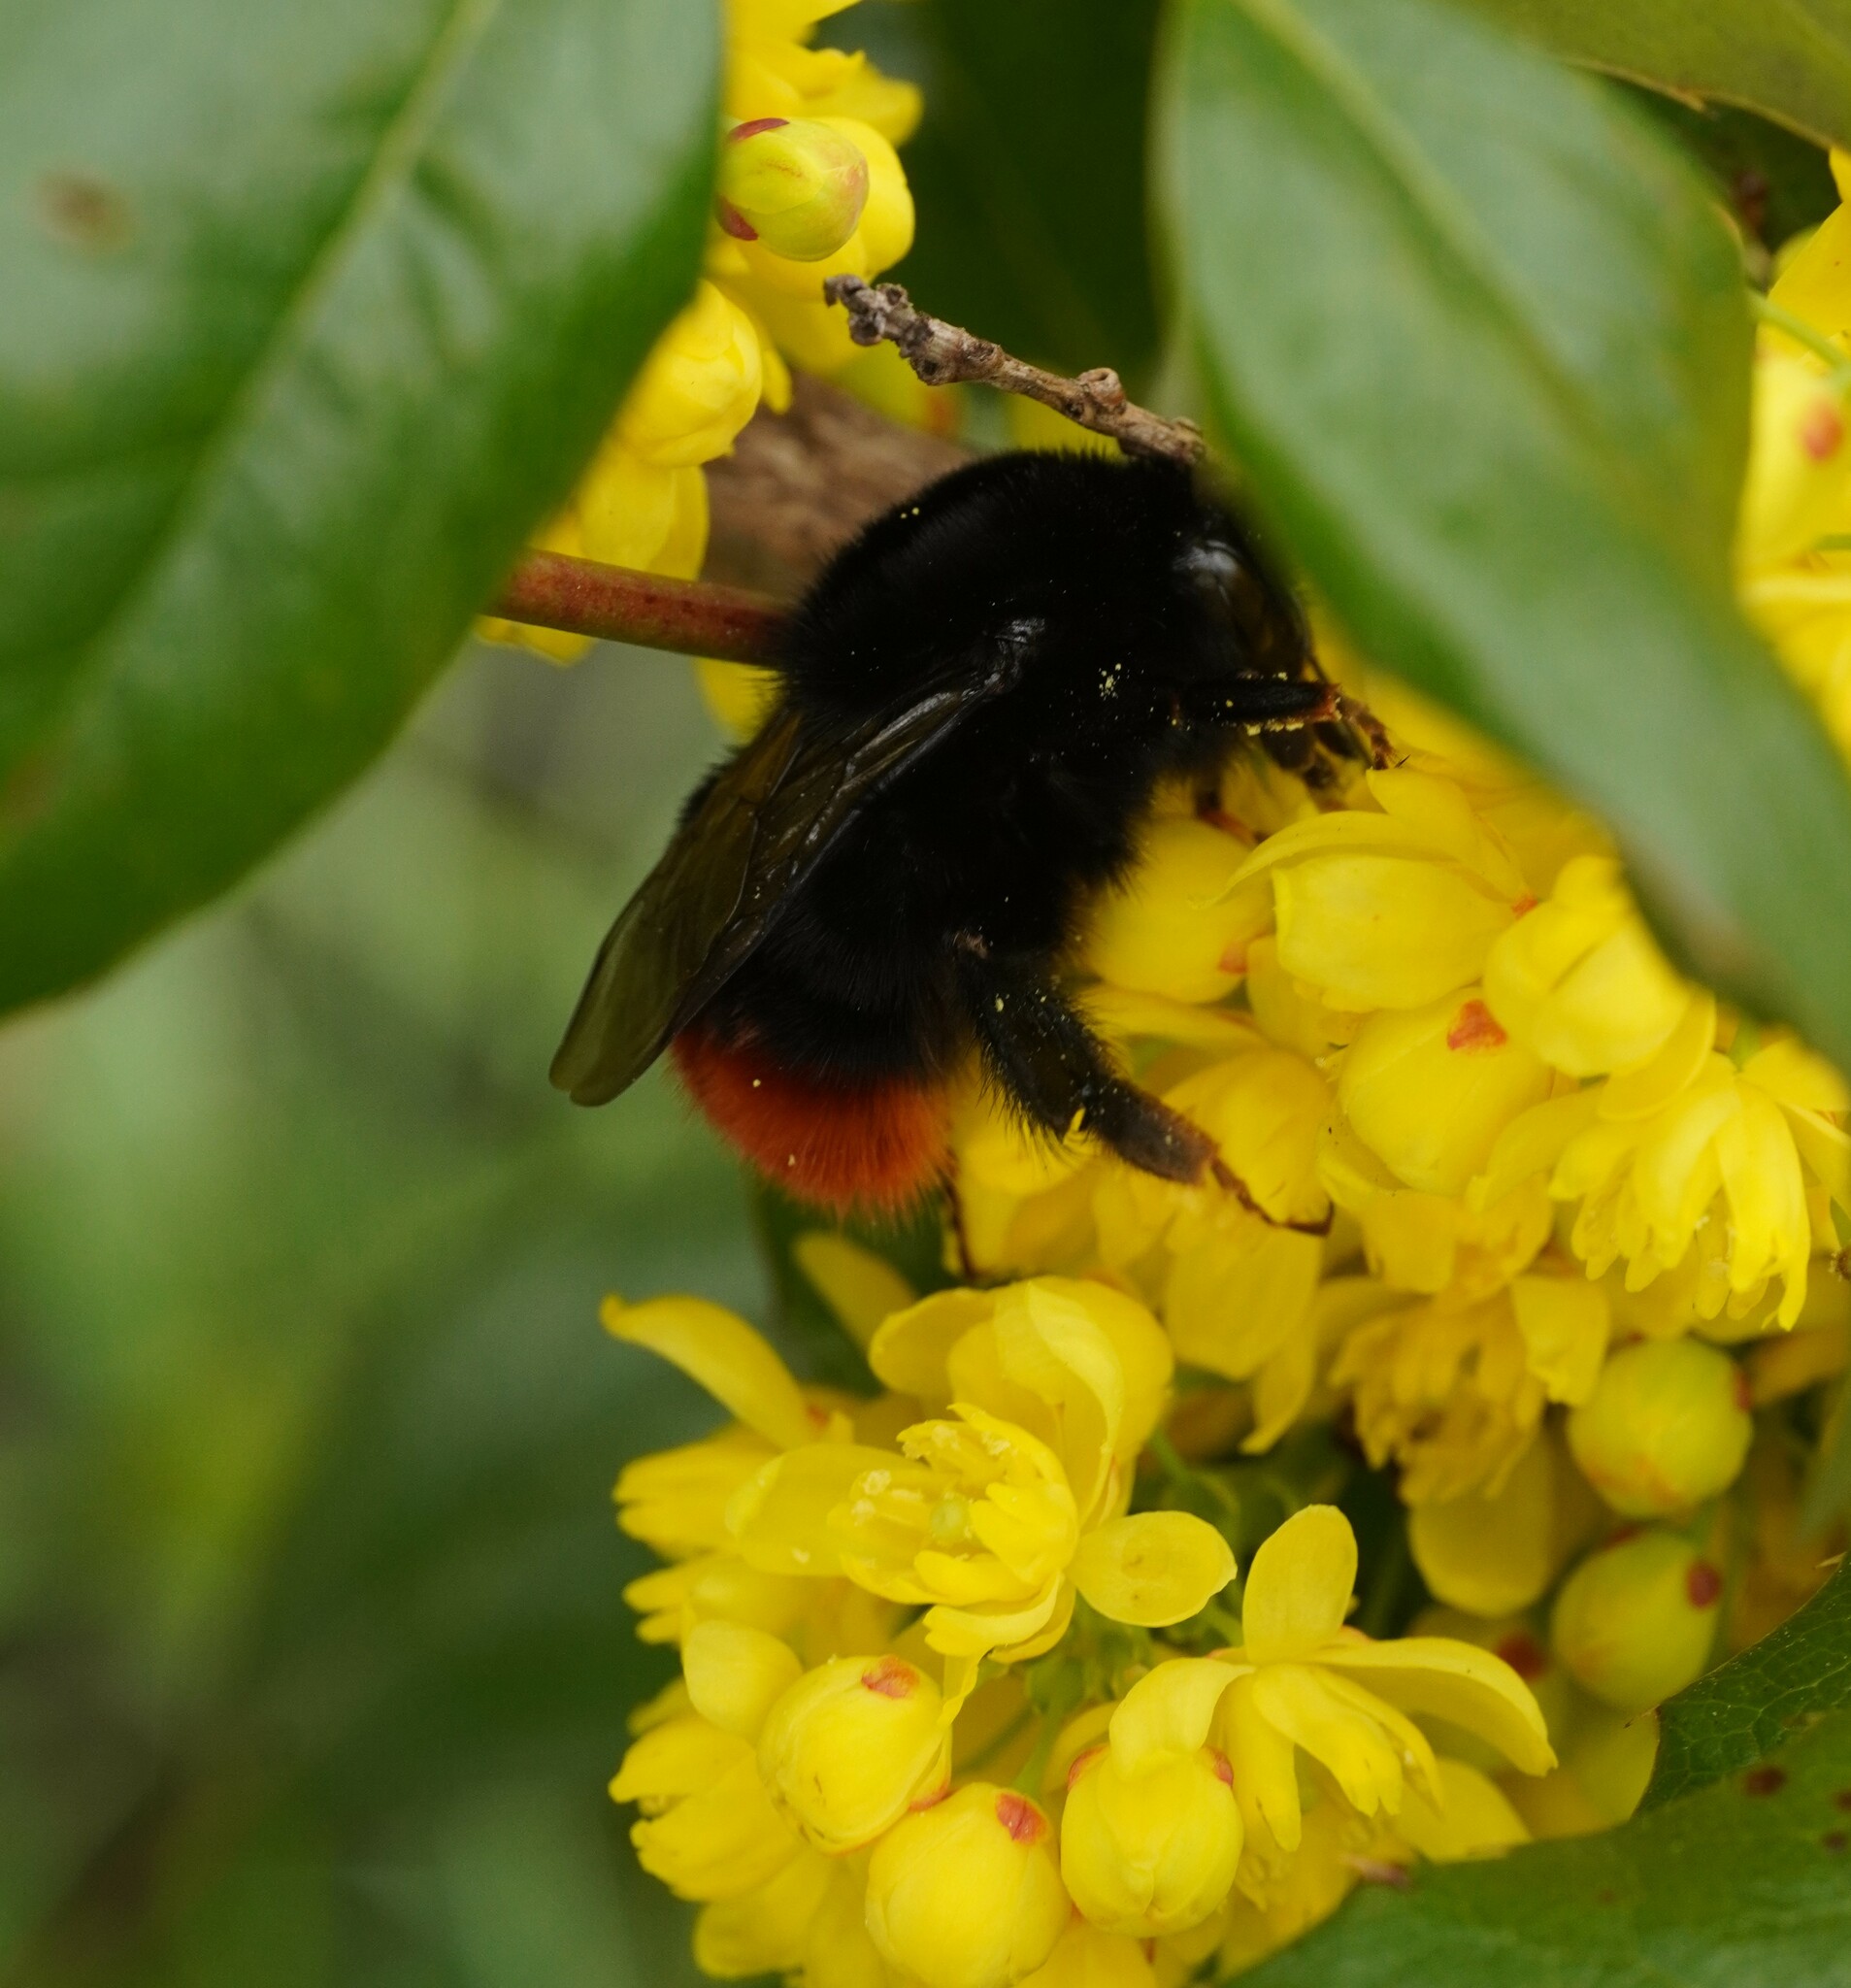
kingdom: Animalia
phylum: Arthropoda
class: Insecta
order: Hymenoptera
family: Apidae
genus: Bombus
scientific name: Bombus lapidarius
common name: Large red-tailed humble-bee
